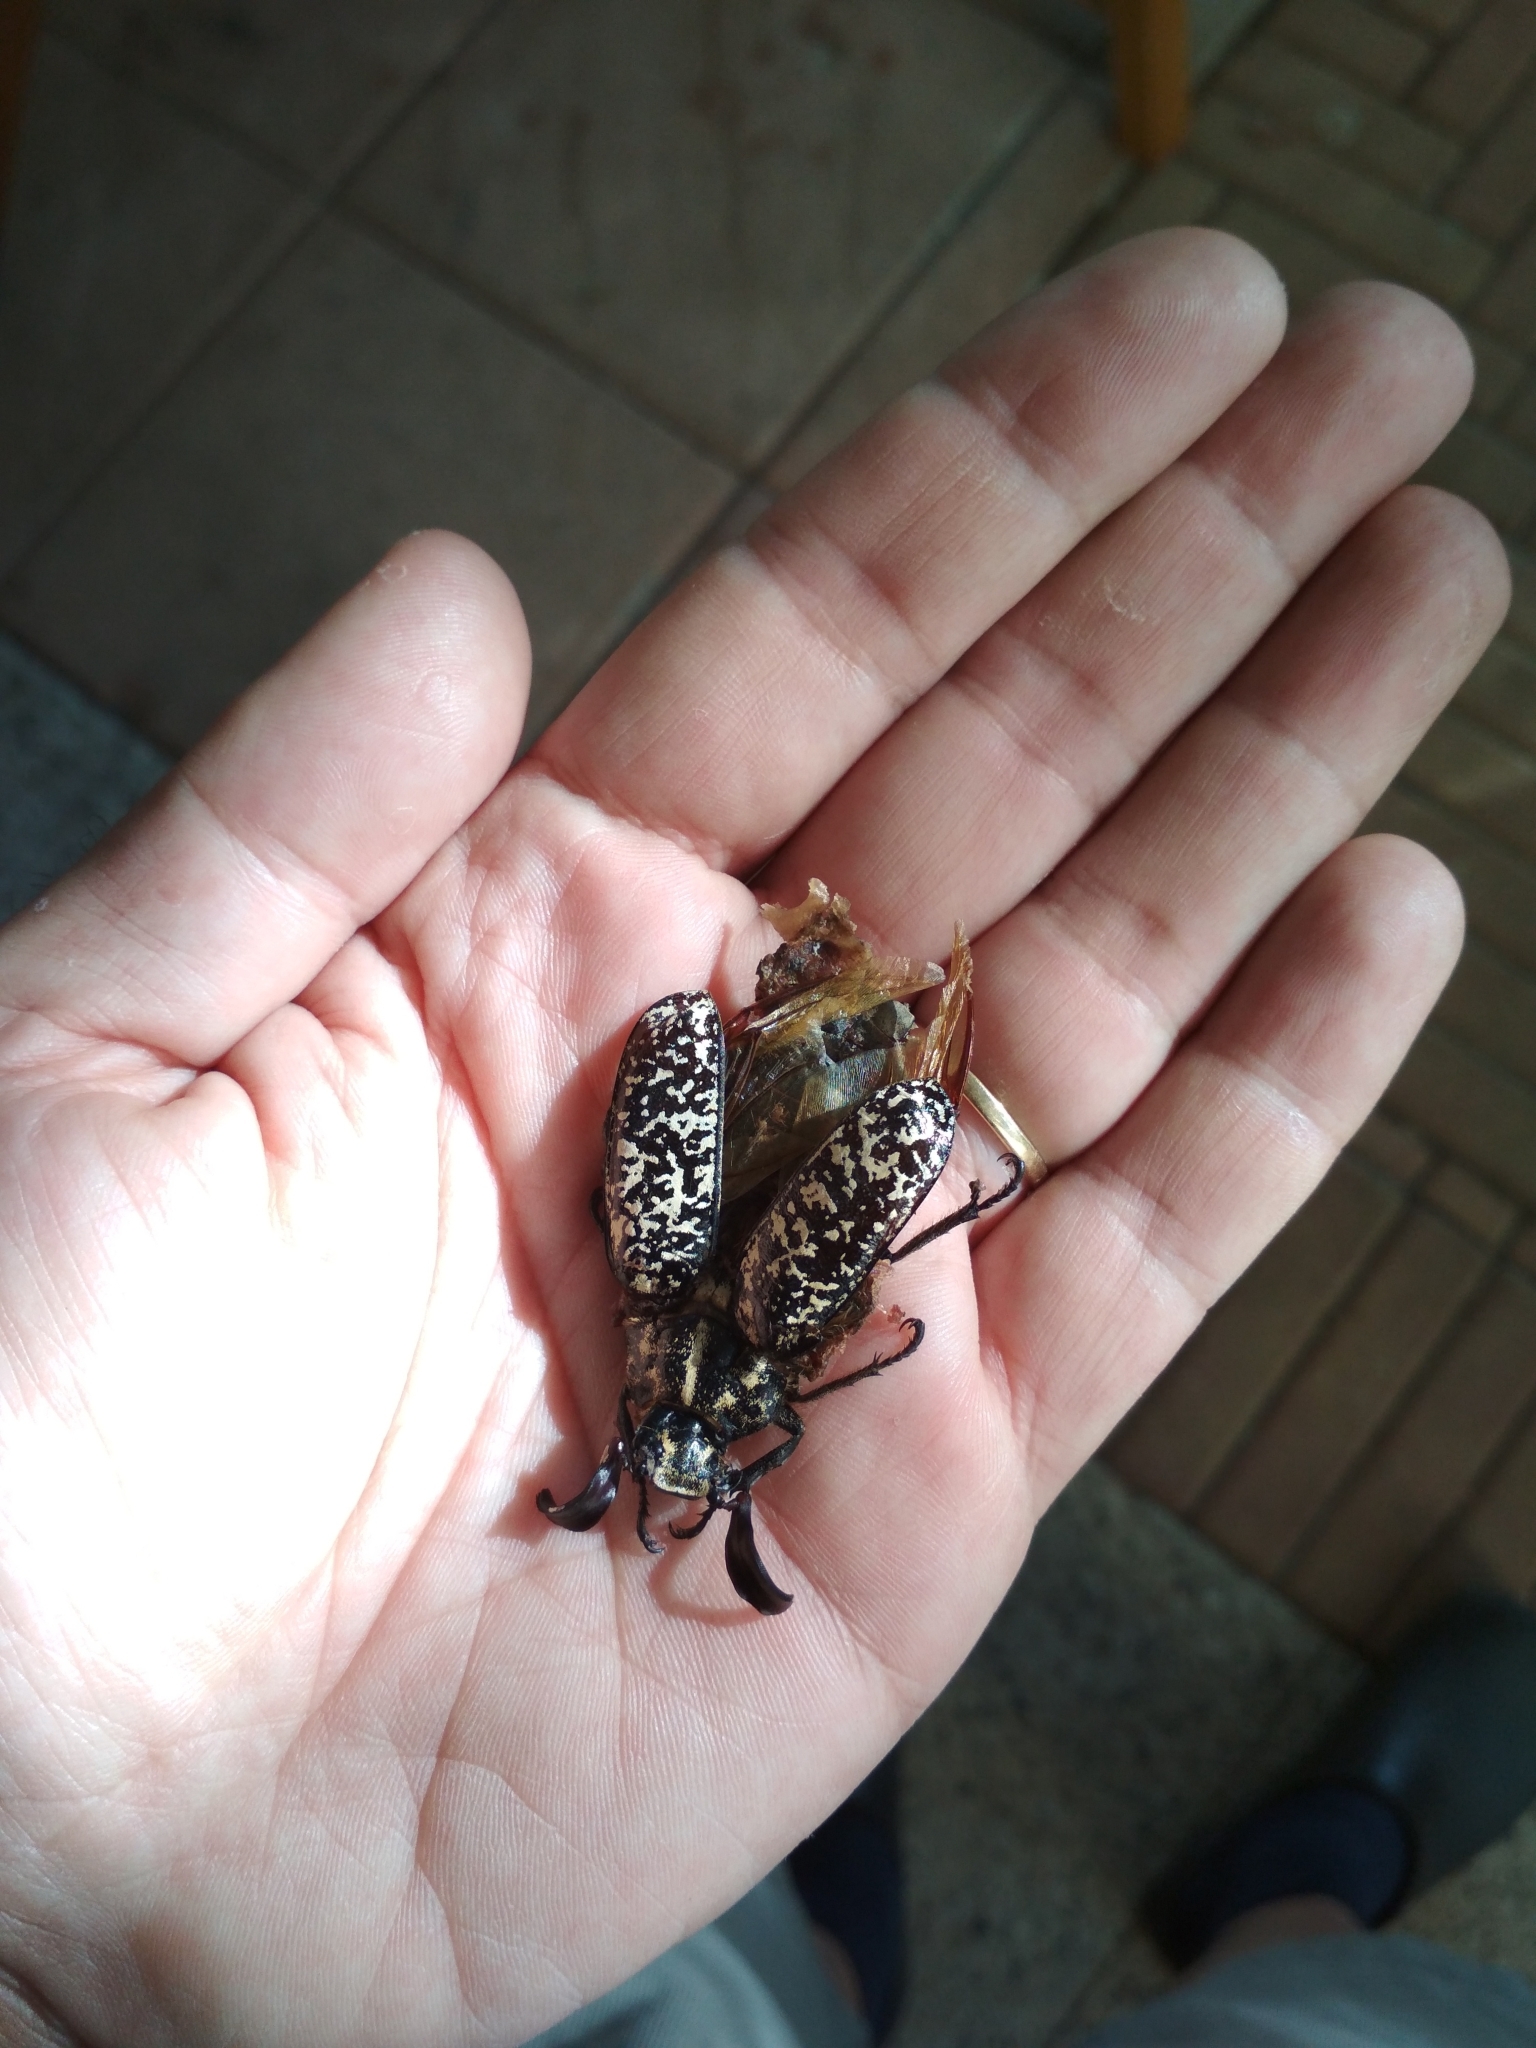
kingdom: Animalia
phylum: Arthropoda
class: Insecta
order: Coleoptera
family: Scarabaeidae
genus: Polyphylla
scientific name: Polyphylla fullo
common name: Pine chafer
